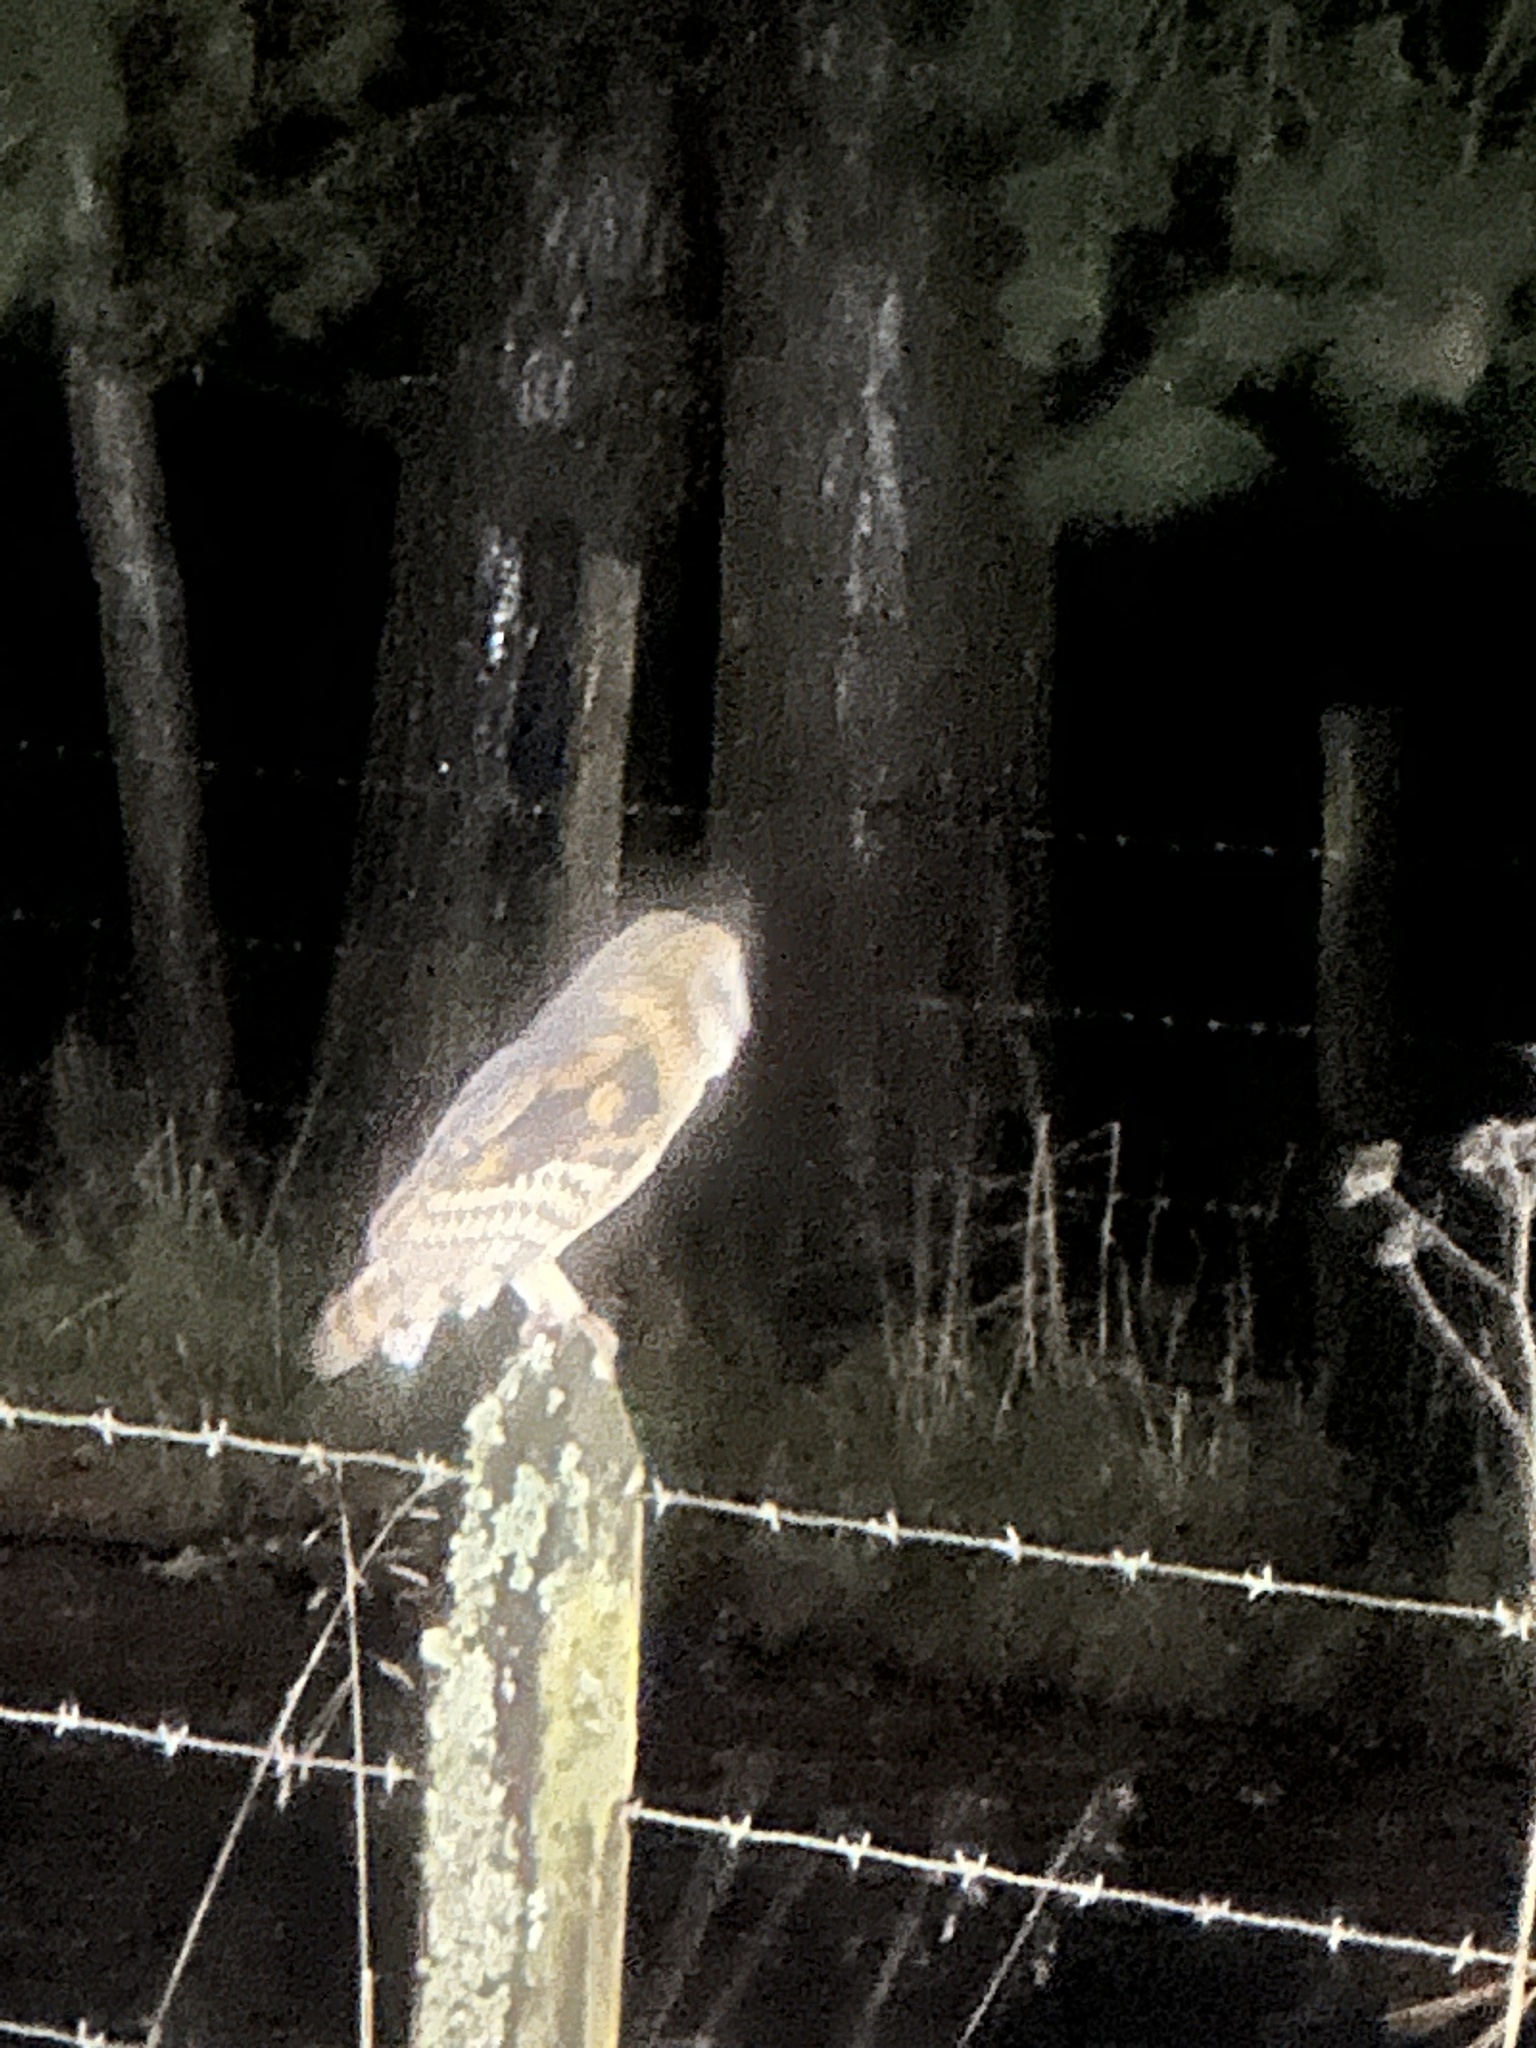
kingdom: Animalia
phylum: Chordata
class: Aves
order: Strigiformes
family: Tytonidae
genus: Tyto
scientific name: Tyto alba
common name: Barn owl
